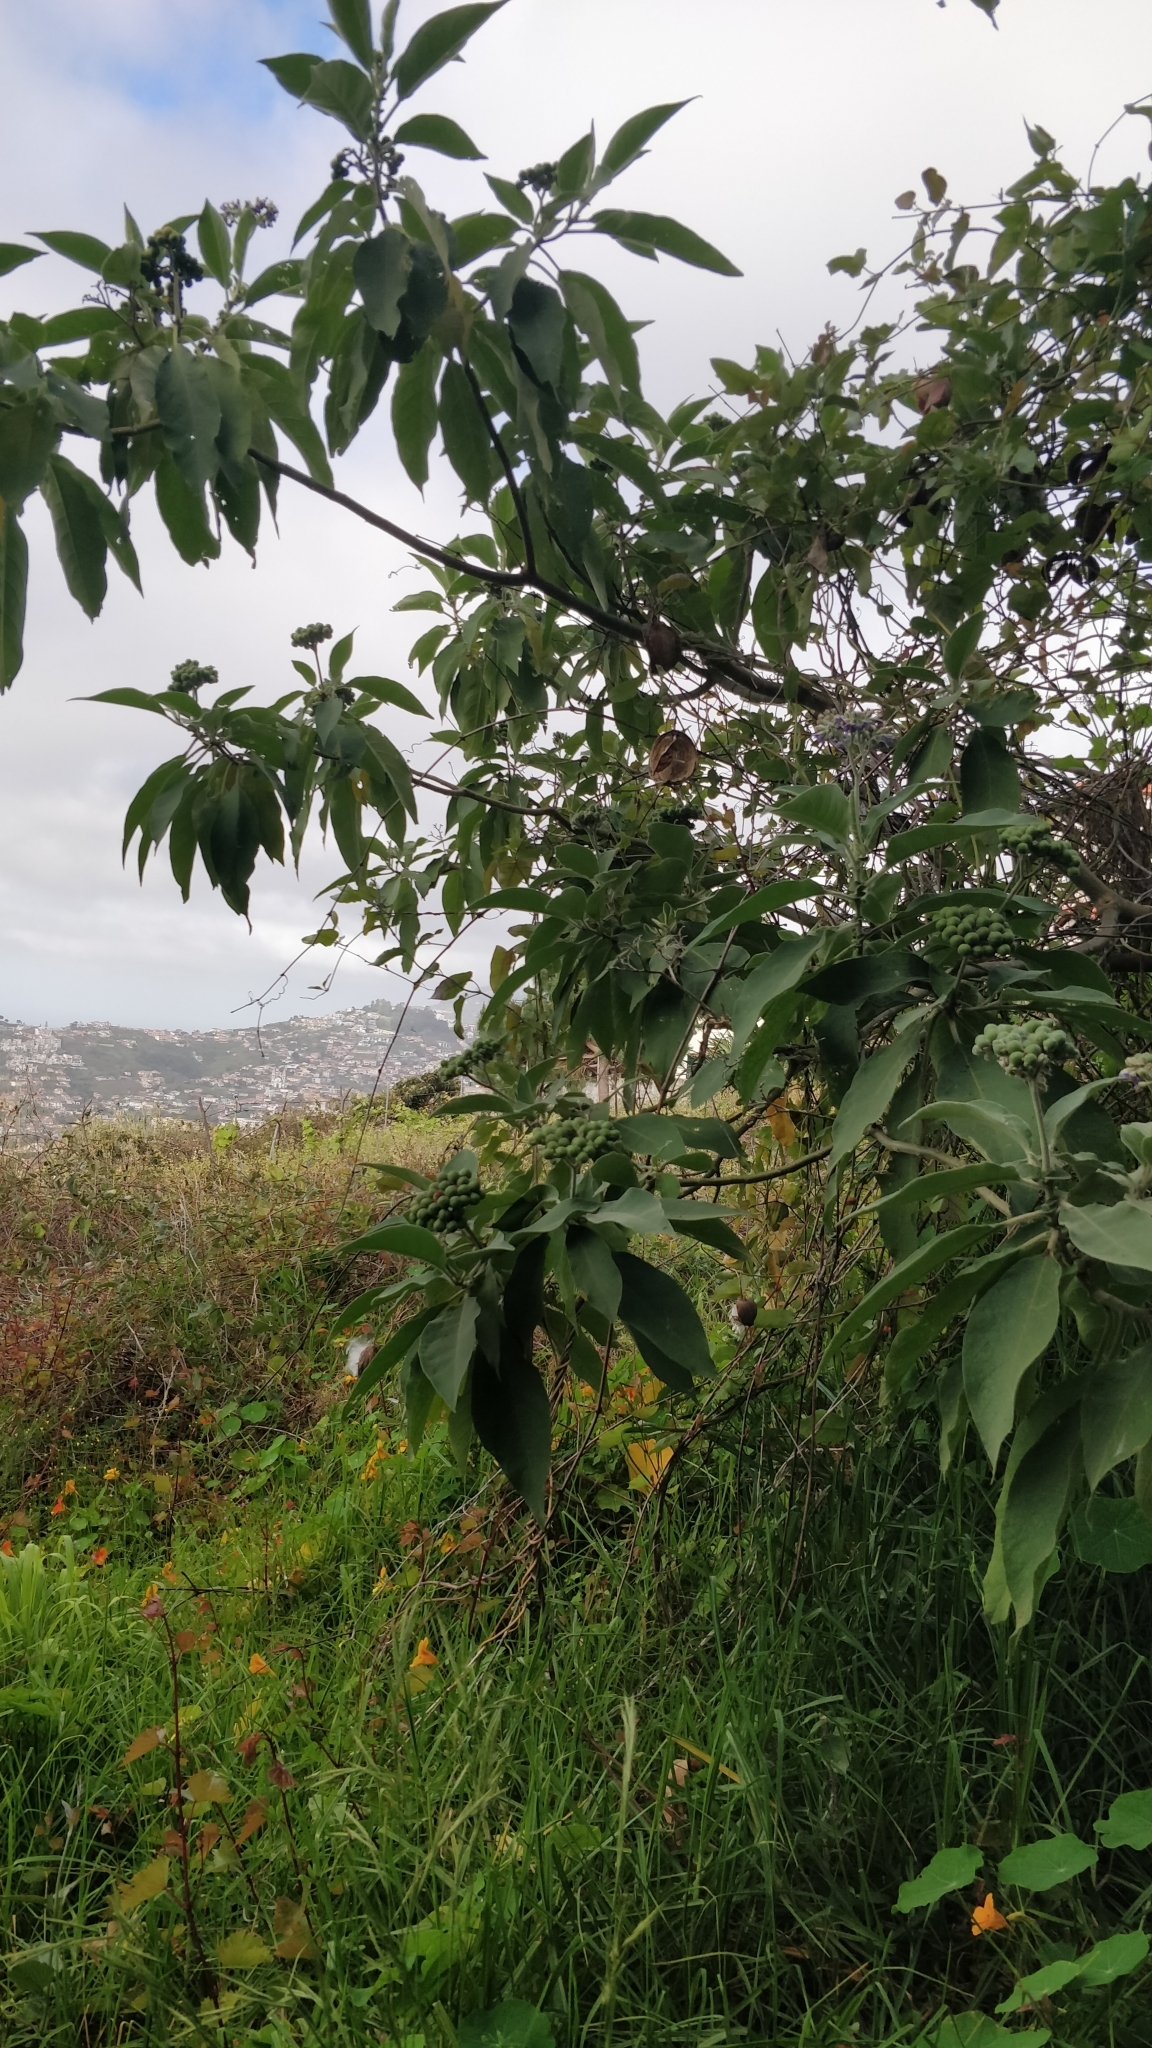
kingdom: Plantae
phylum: Tracheophyta
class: Magnoliopsida
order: Solanales
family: Solanaceae
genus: Solanum
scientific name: Solanum mauritianum
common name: Earleaf nightshade
